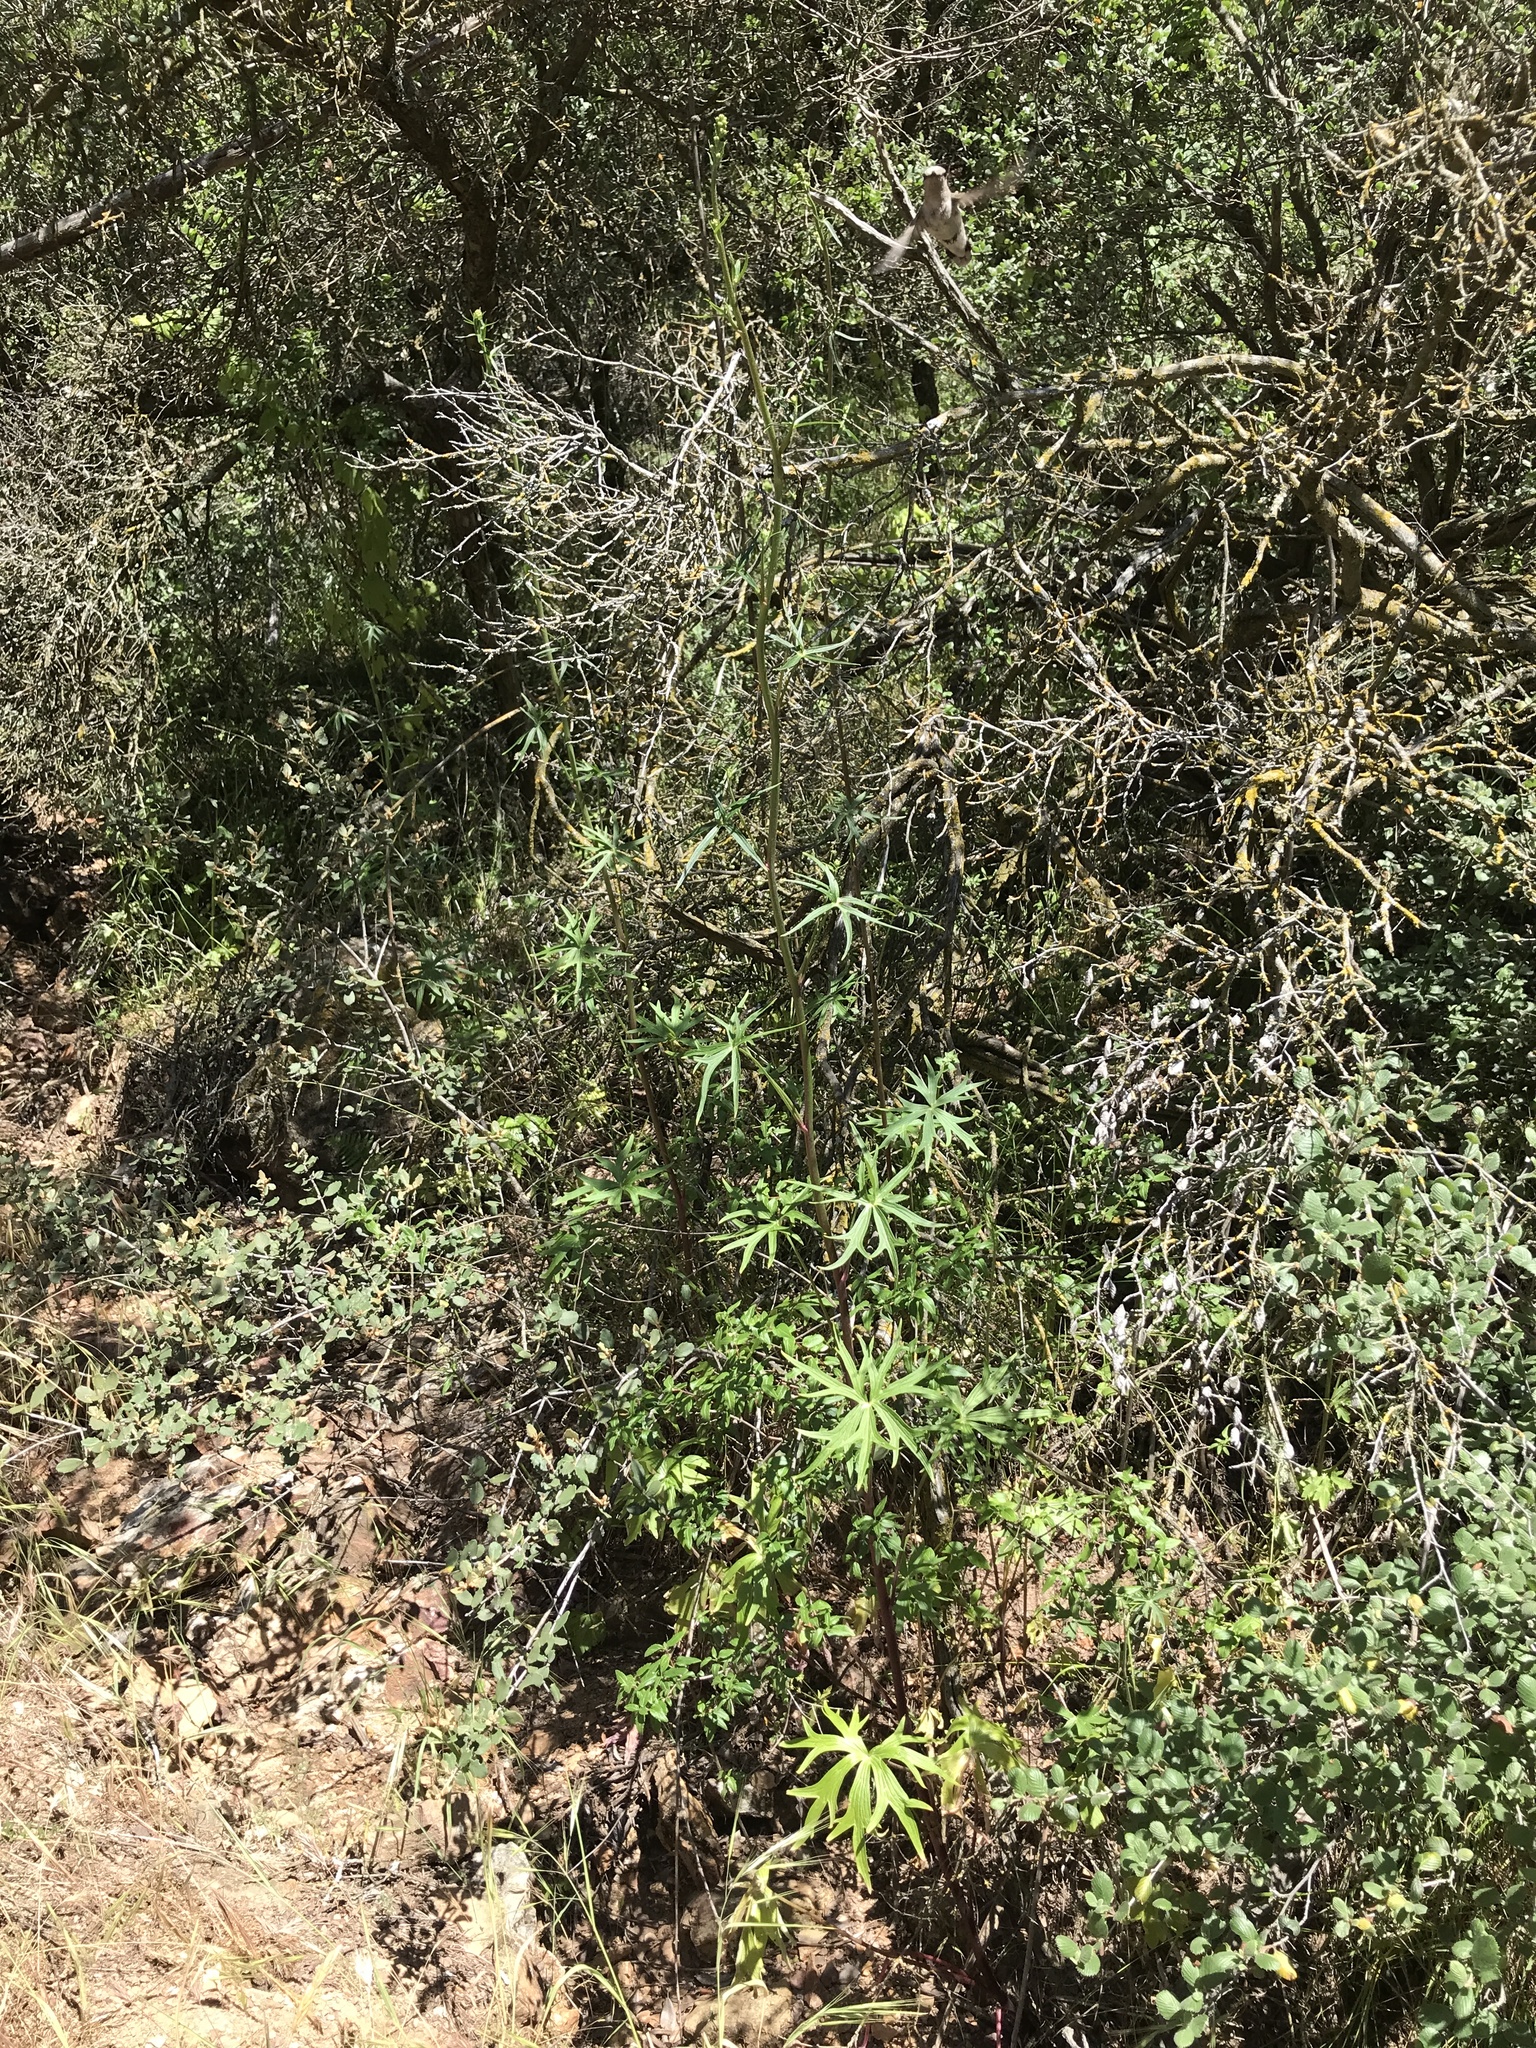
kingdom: Plantae
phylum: Tracheophyta
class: Magnoliopsida
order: Ranunculales
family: Ranunculaceae
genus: Delphinium
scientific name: Delphinium cardinale
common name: Scarlet larkspur
